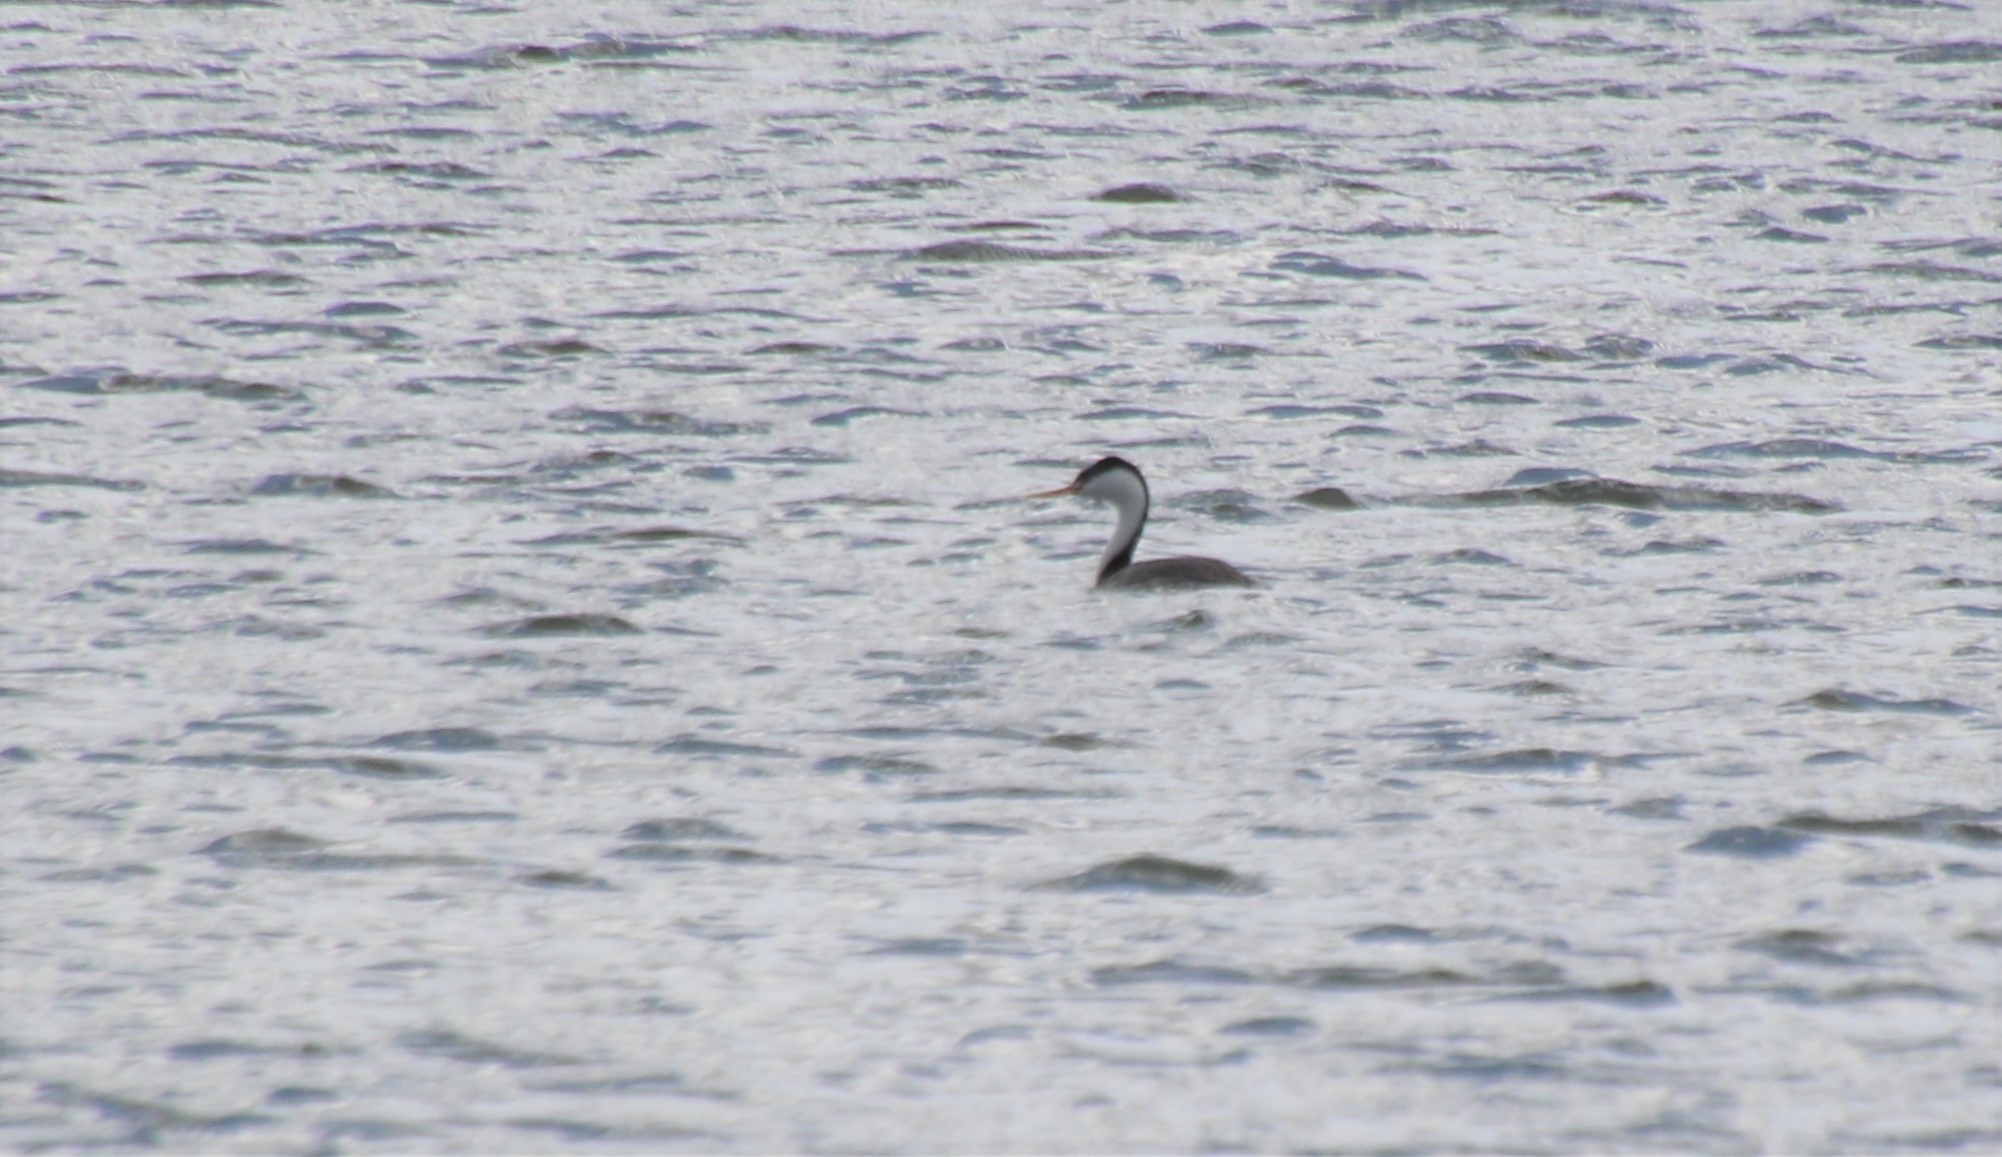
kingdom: Animalia
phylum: Chordata
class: Aves
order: Podicipediformes
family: Podicipedidae
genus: Aechmophorus
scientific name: Aechmophorus clarkii
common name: Clark's grebe
